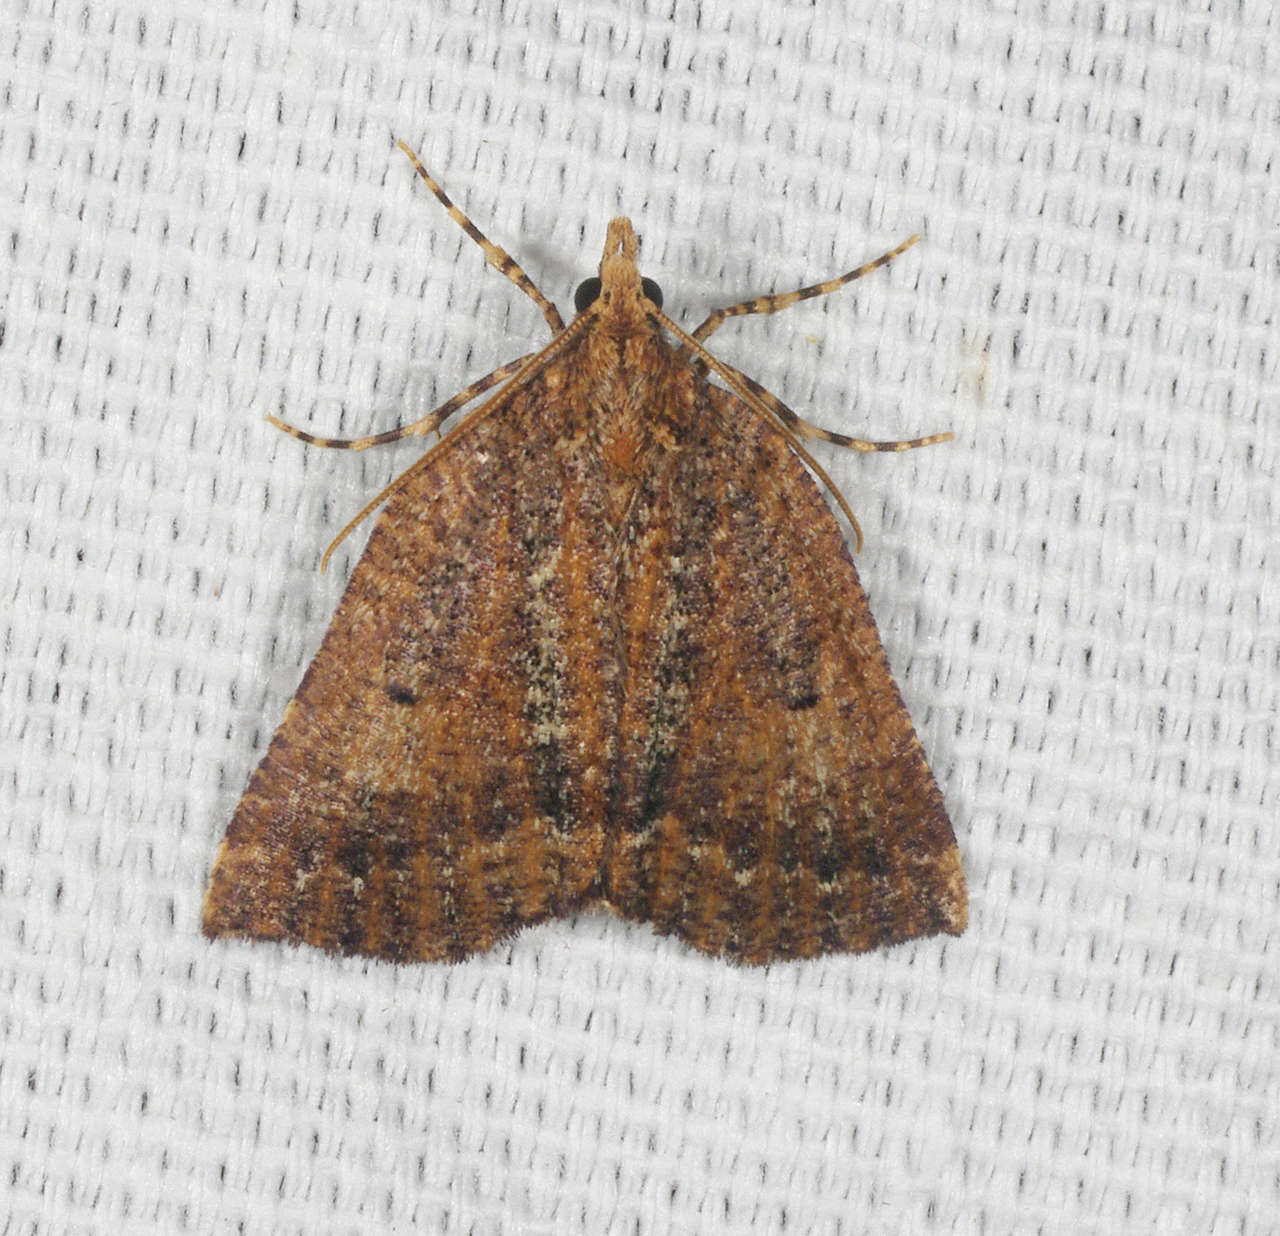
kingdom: Animalia
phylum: Arthropoda
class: Insecta
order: Lepidoptera
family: Geometridae
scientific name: Geometridae
